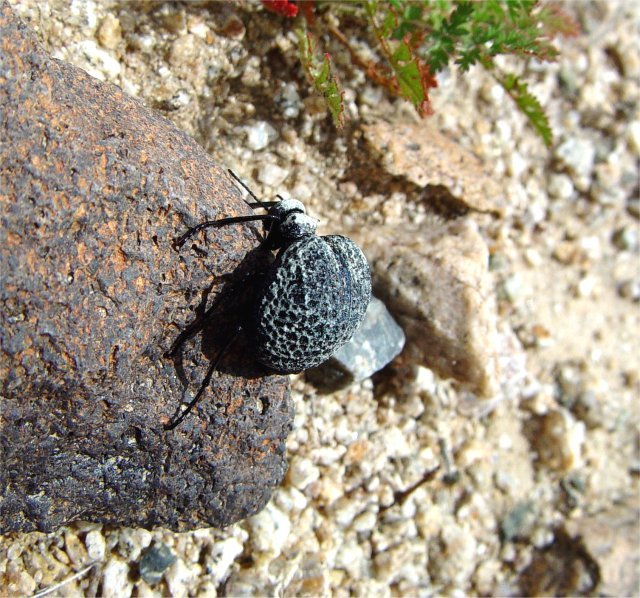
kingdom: Animalia
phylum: Arthropoda
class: Insecta
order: Coleoptera
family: Meloidae
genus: Cysteodemus
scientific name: Cysteodemus armatus
